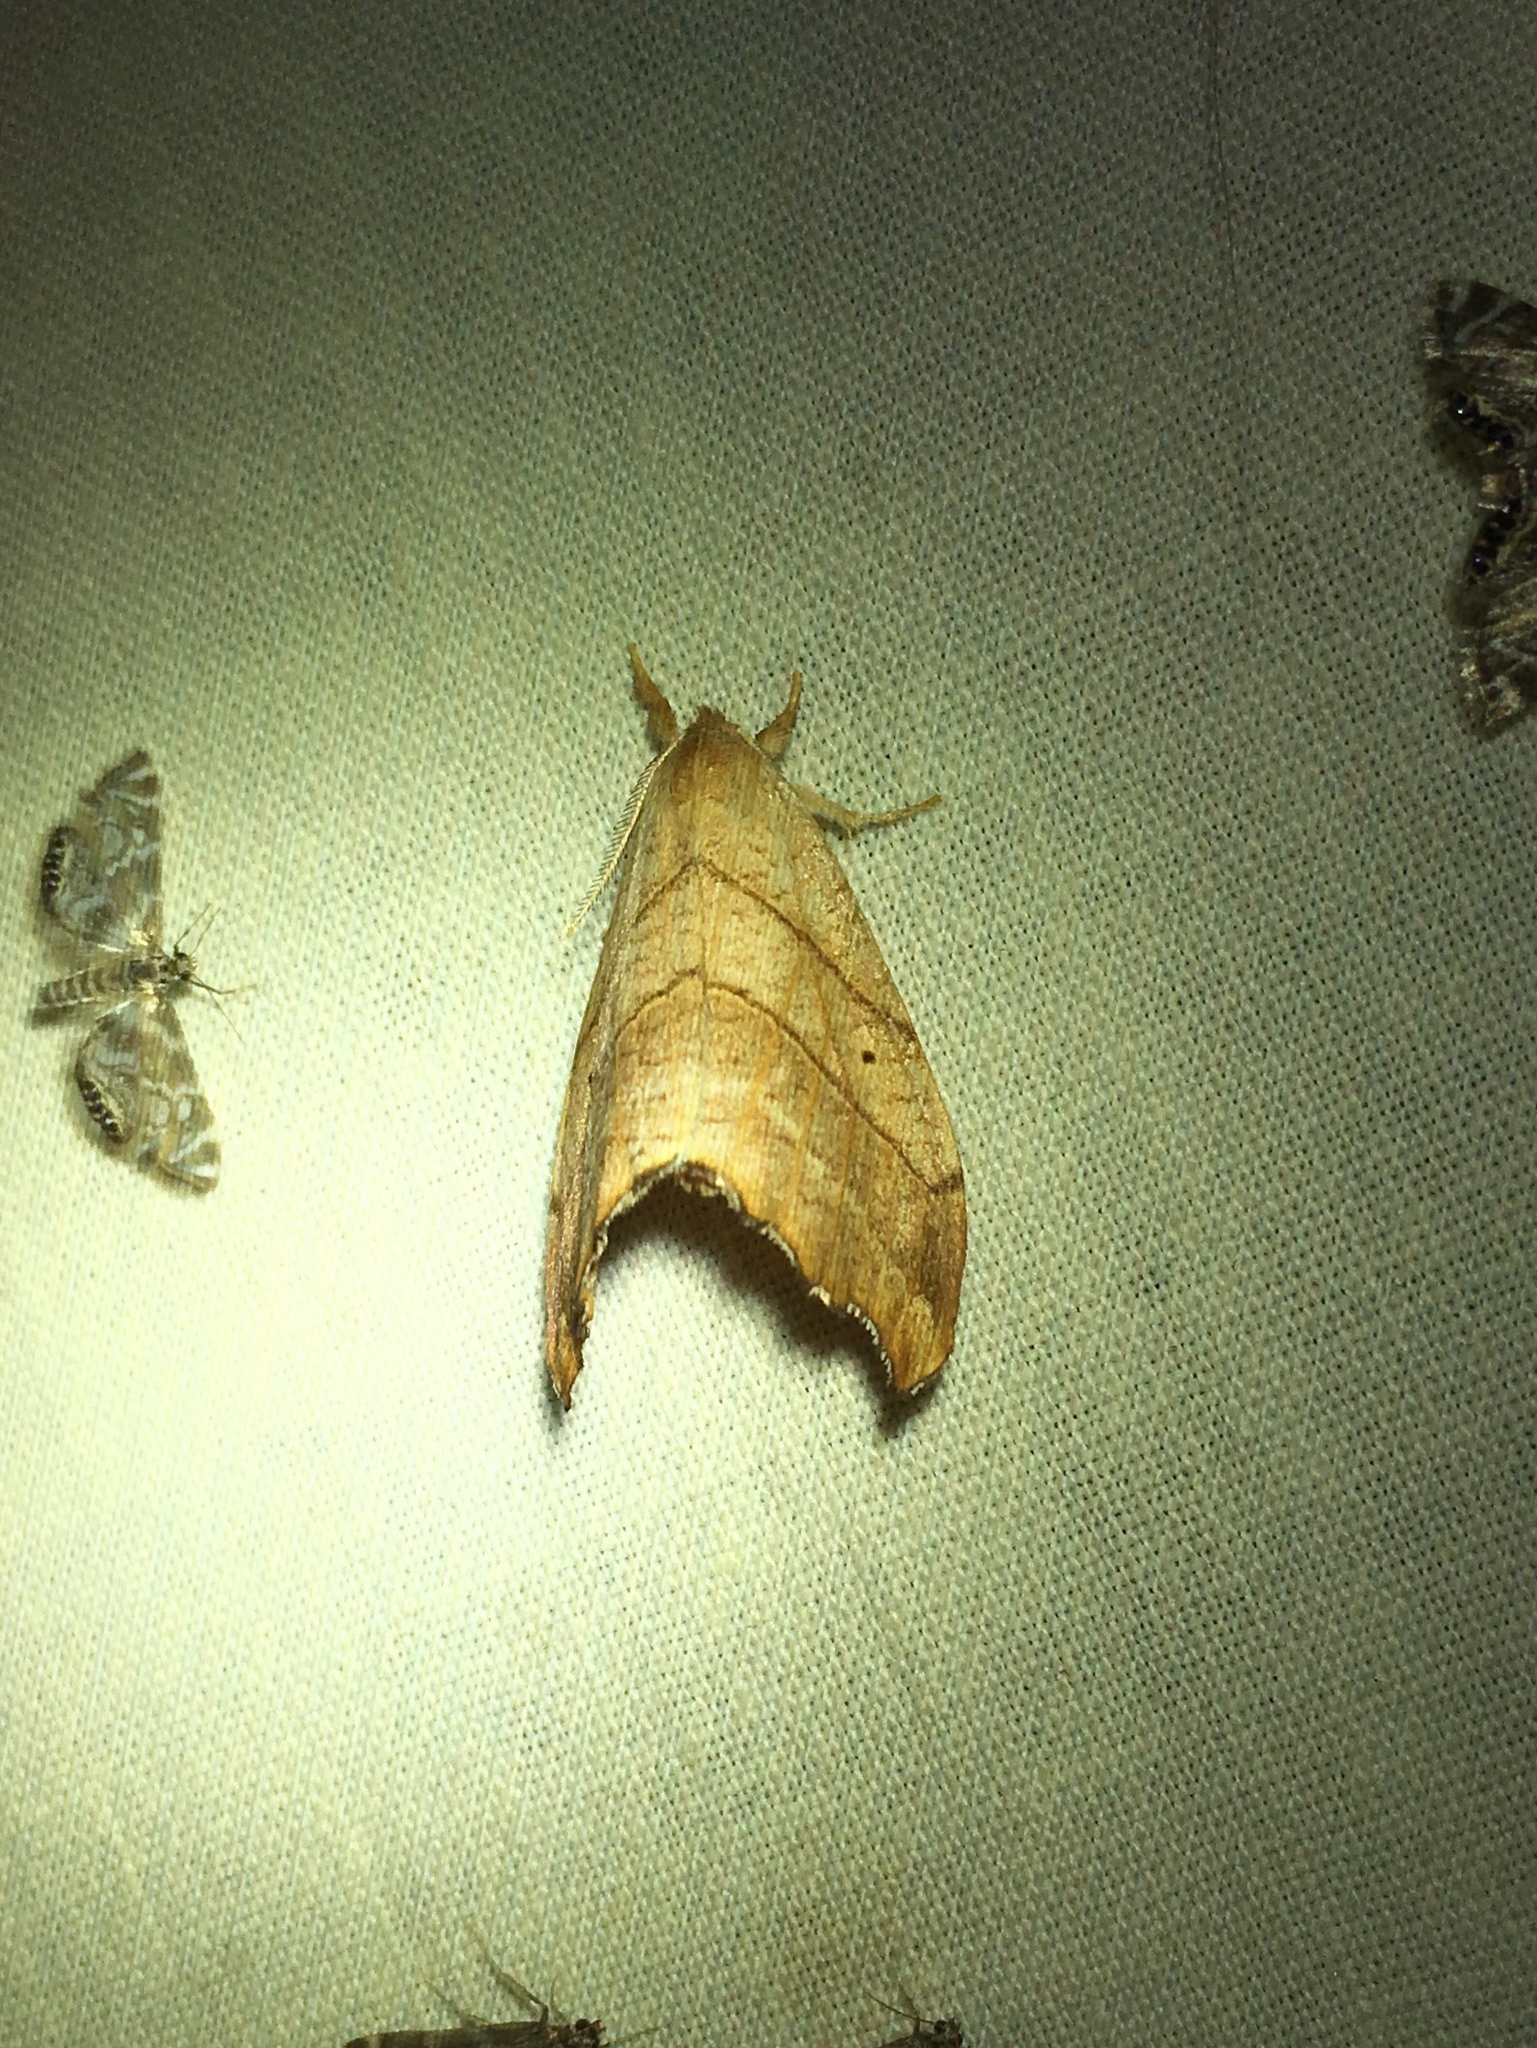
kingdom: Animalia
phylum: Arthropoda
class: Insecta
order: Lepidoptera
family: Drepanidae
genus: Falcaria
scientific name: Falcaria bilineata
